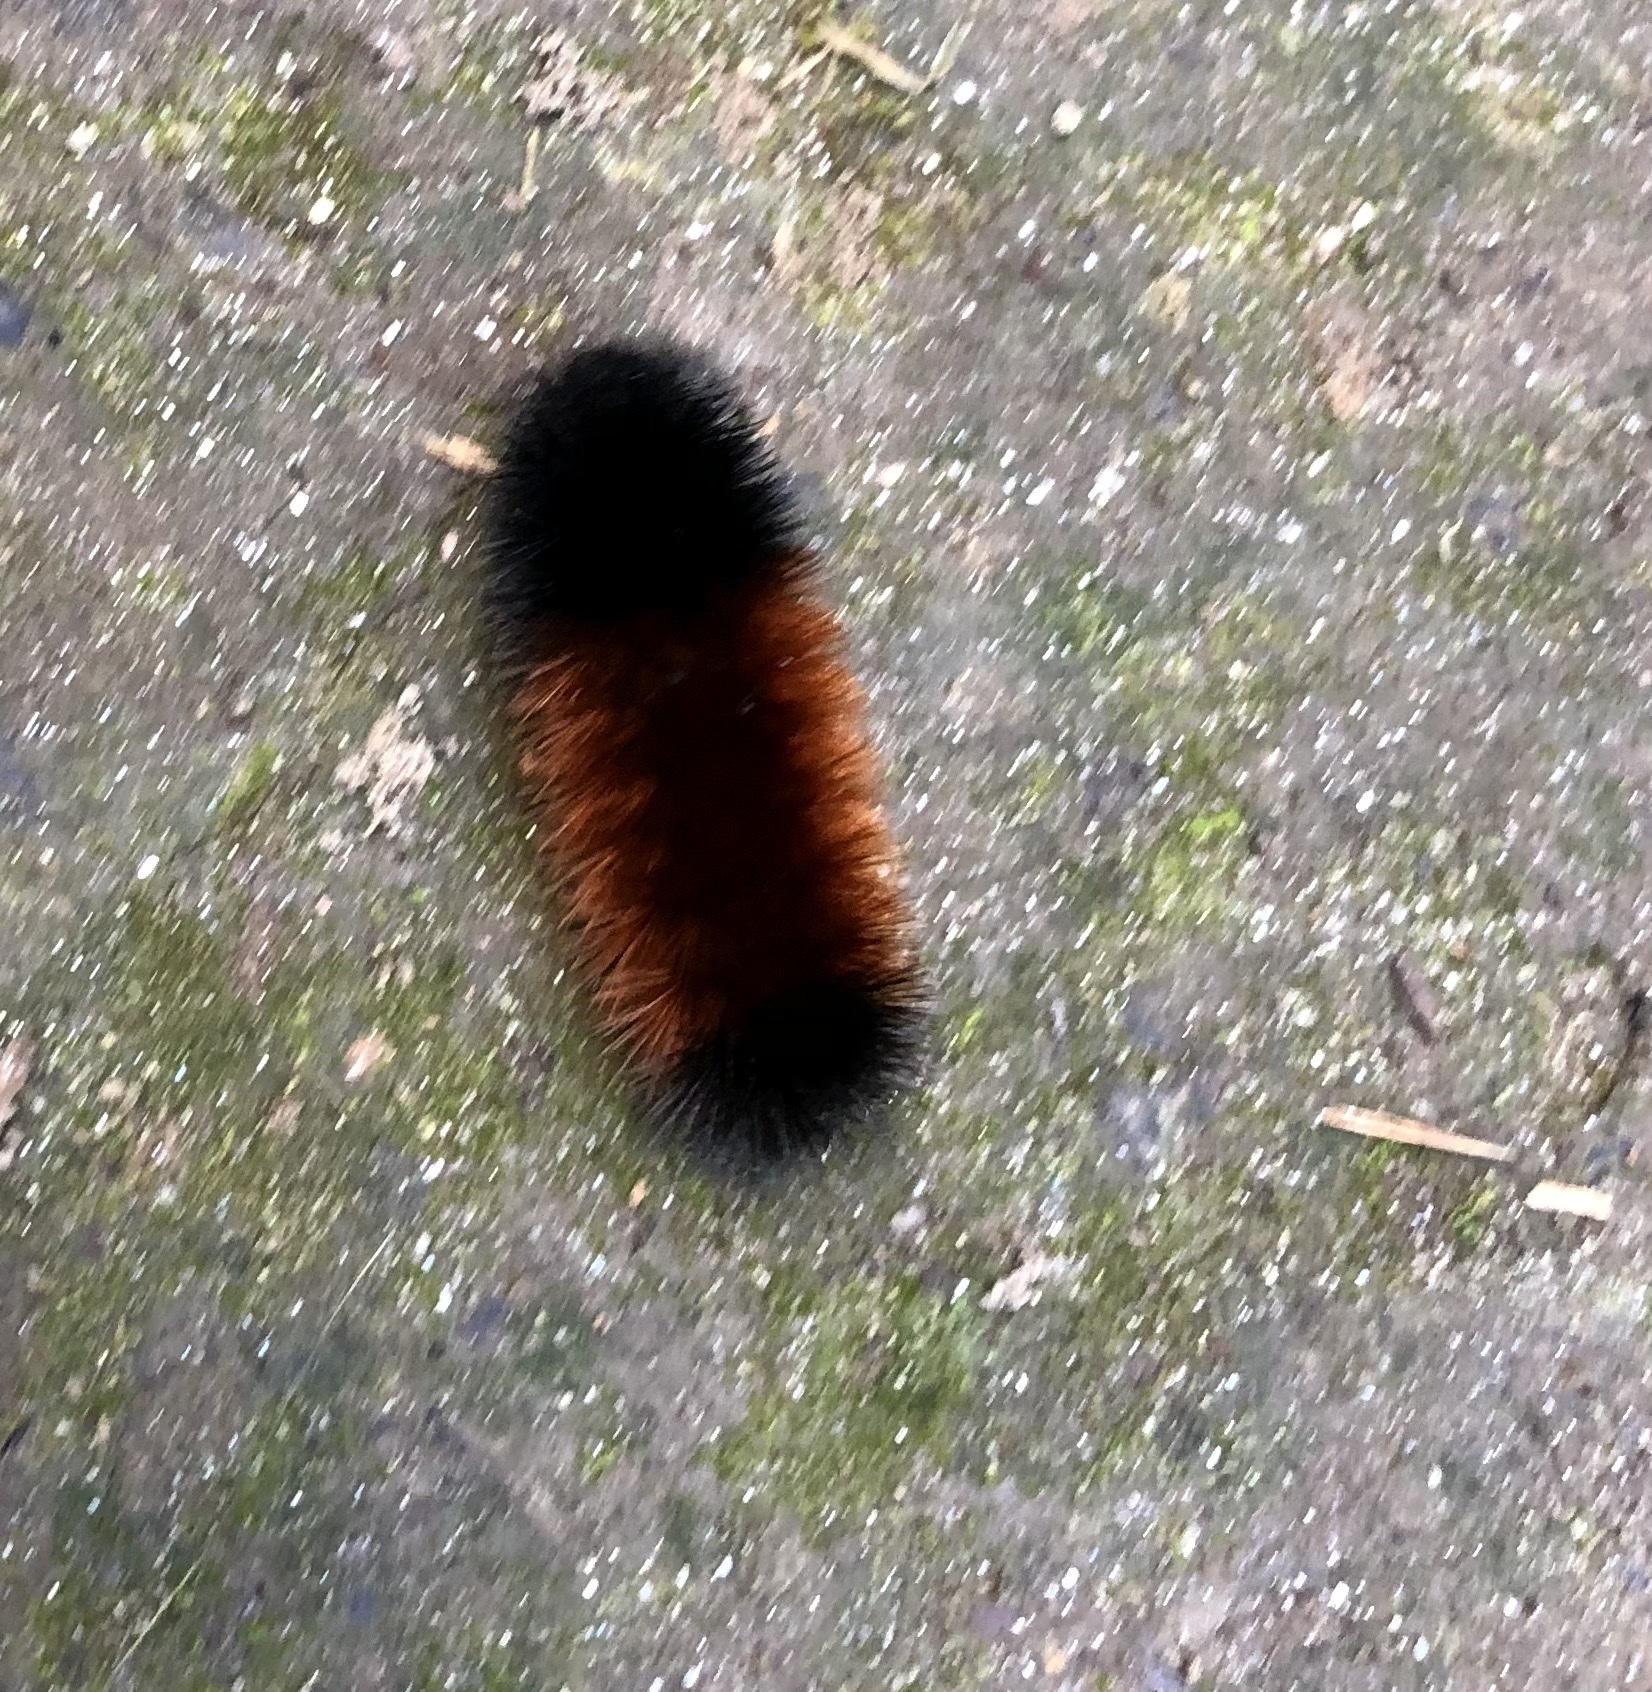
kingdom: Animalia
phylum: Arthropoda
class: Insecta
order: Lepidoptera
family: Erebidae
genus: Pyrrharctia
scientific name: Pyrrharctia isabella
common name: Isabella tiger moth
